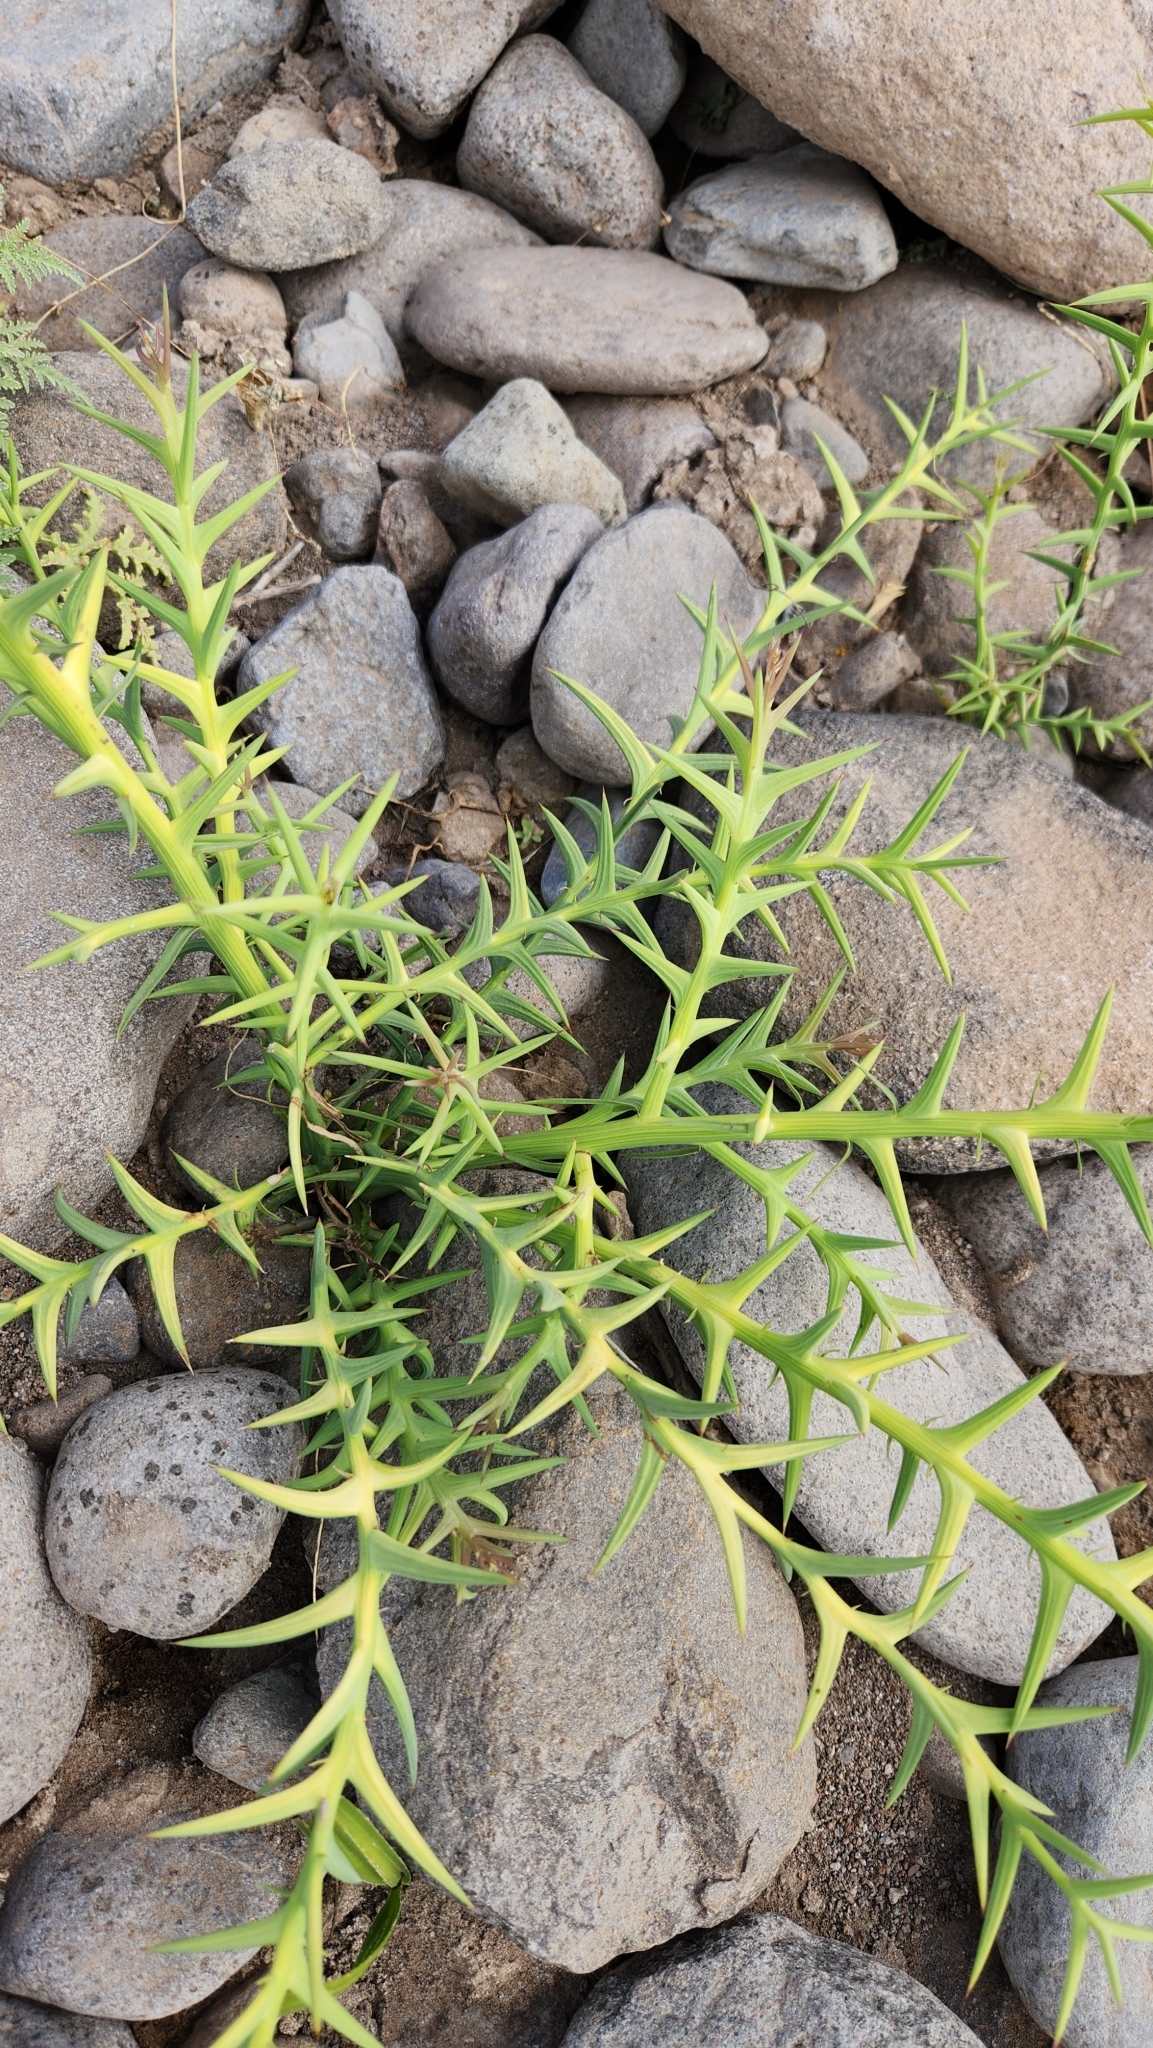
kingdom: Plantae
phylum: Tracheophyta
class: Magnoliopsida
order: Asterales
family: Asteraceae
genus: Chloracantha
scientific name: Chloracantha spinosa
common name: Mexican devilweed
